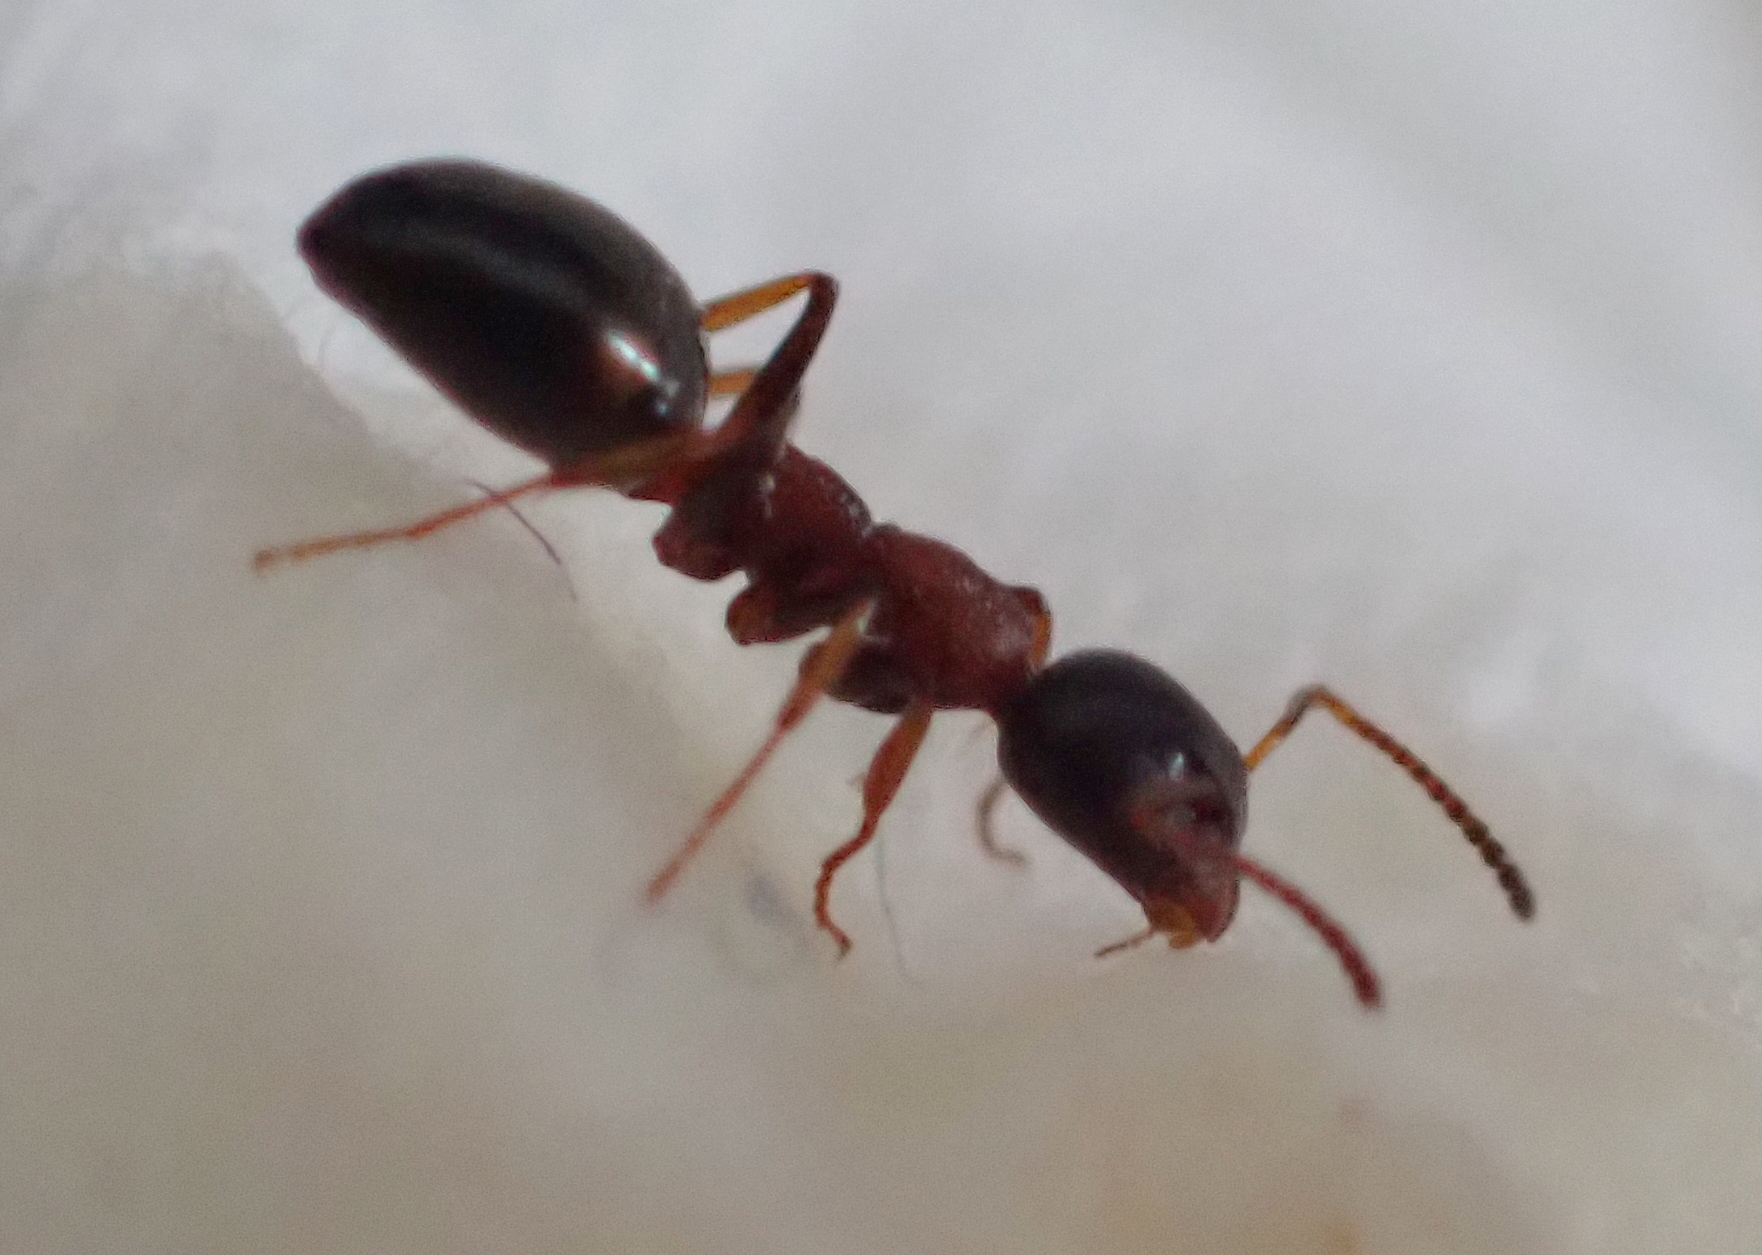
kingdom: Animalia
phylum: Arthropoda
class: Insecta
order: Hymenoptera
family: Formicidae
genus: Dolichoderus
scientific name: Dolichoderus quadripunctatus
